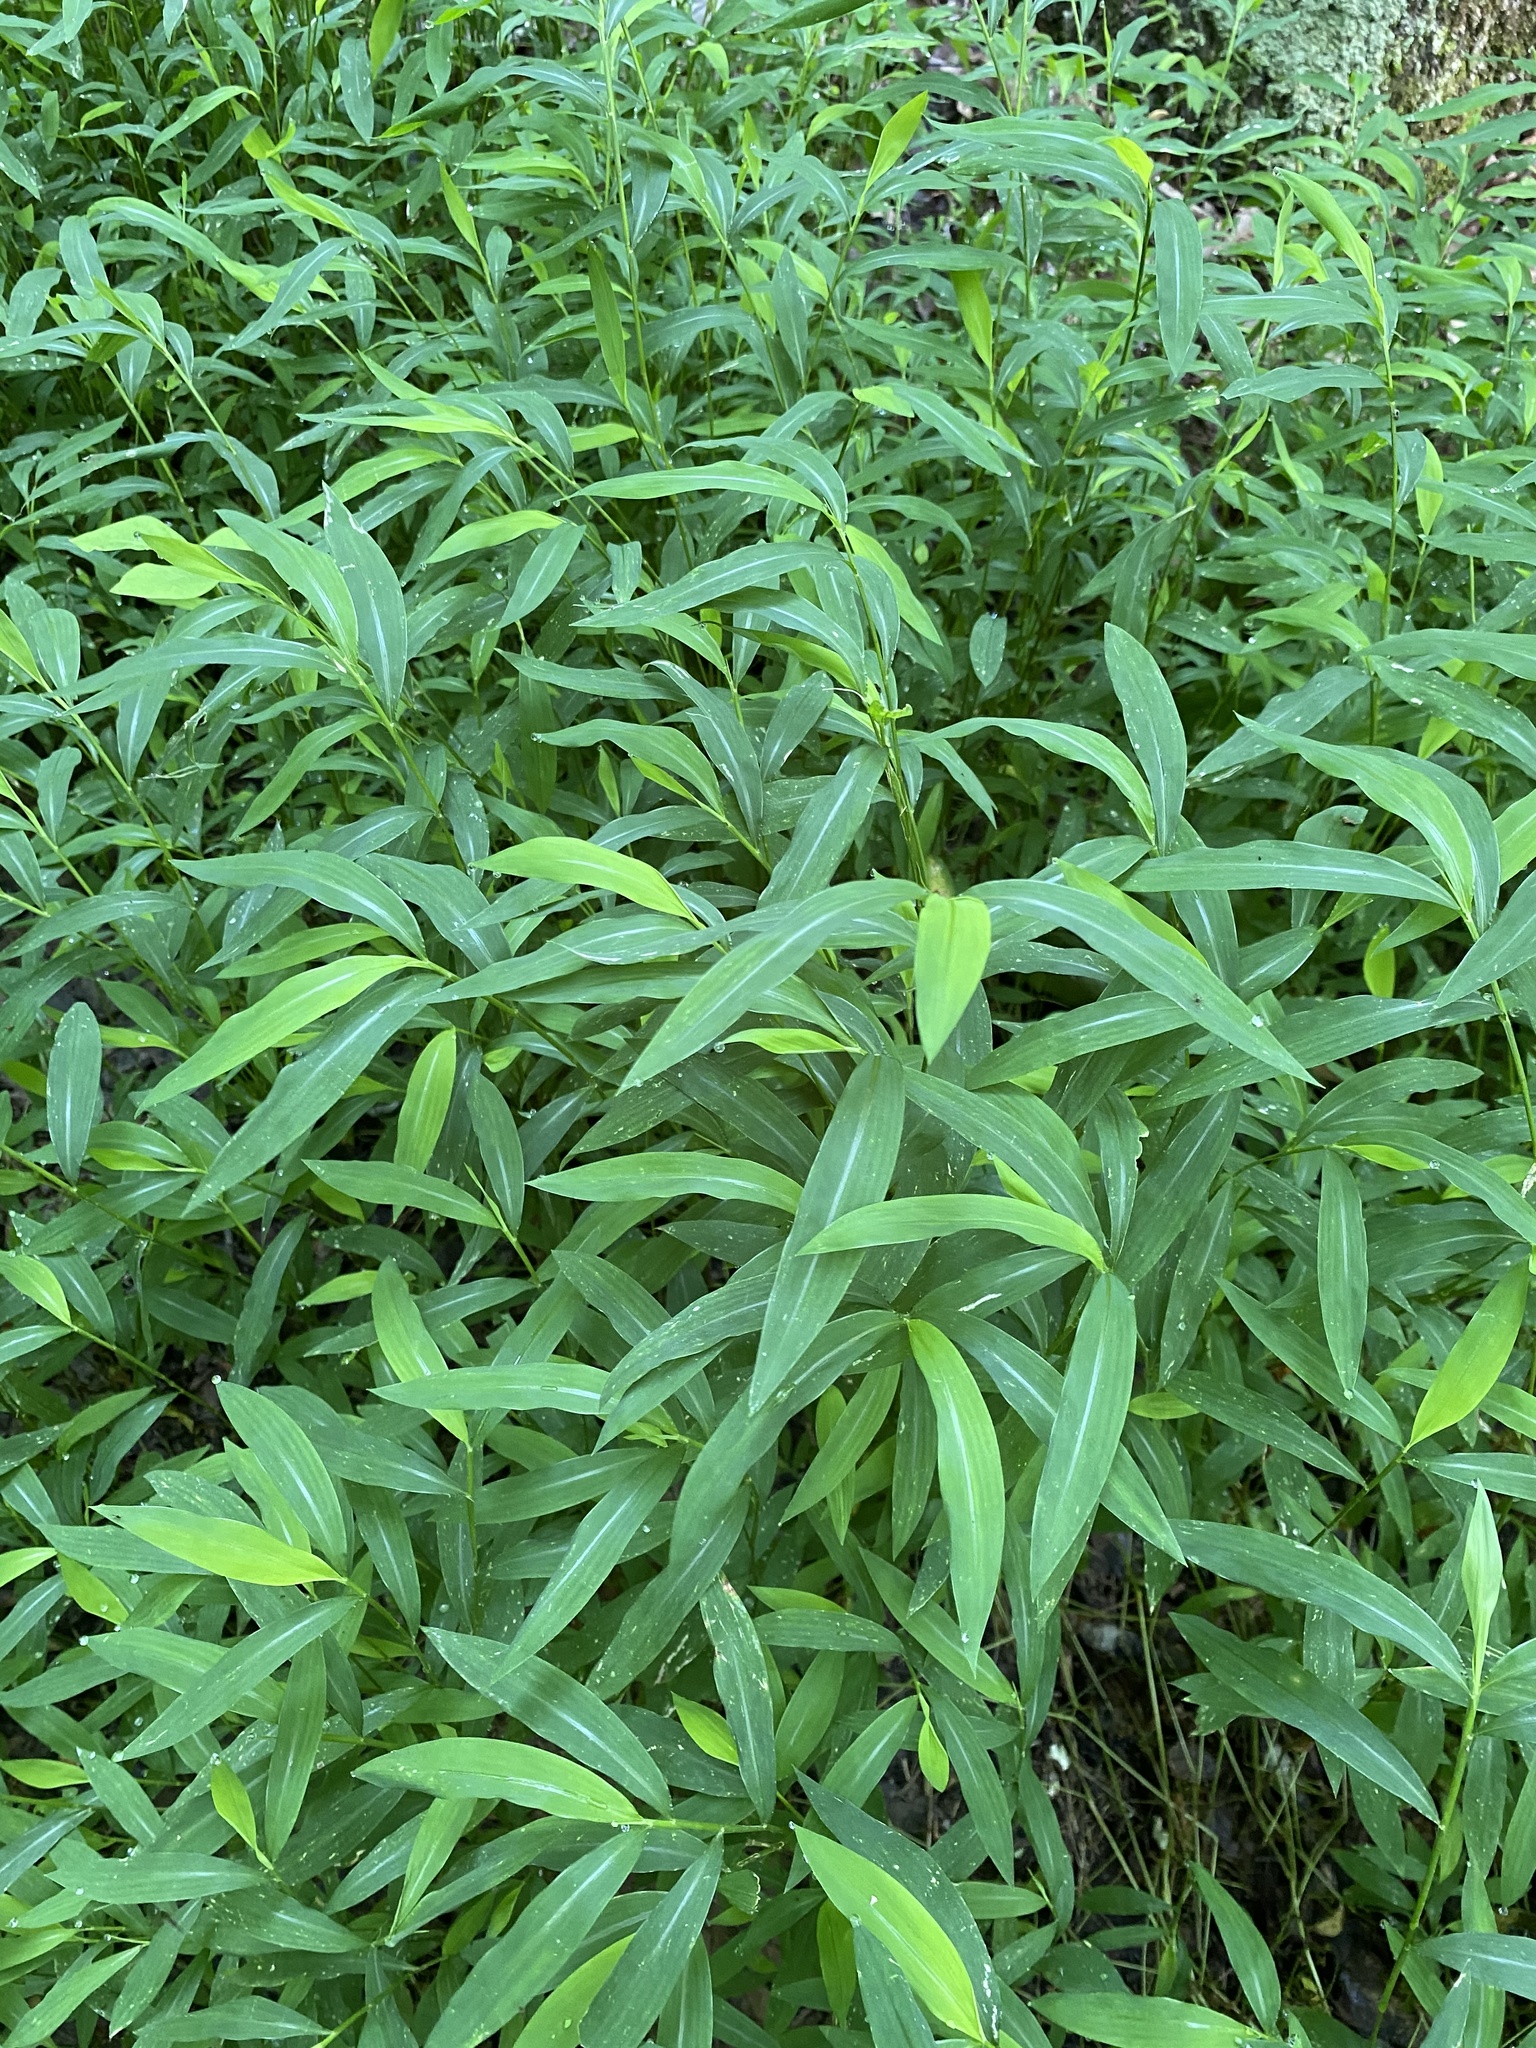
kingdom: Plantae
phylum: Tracheophyta
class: Liliopsida
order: Poales
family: Poaceae
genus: Microstegium
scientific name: Microstegium vimineum
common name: Japanese stiltgrass
